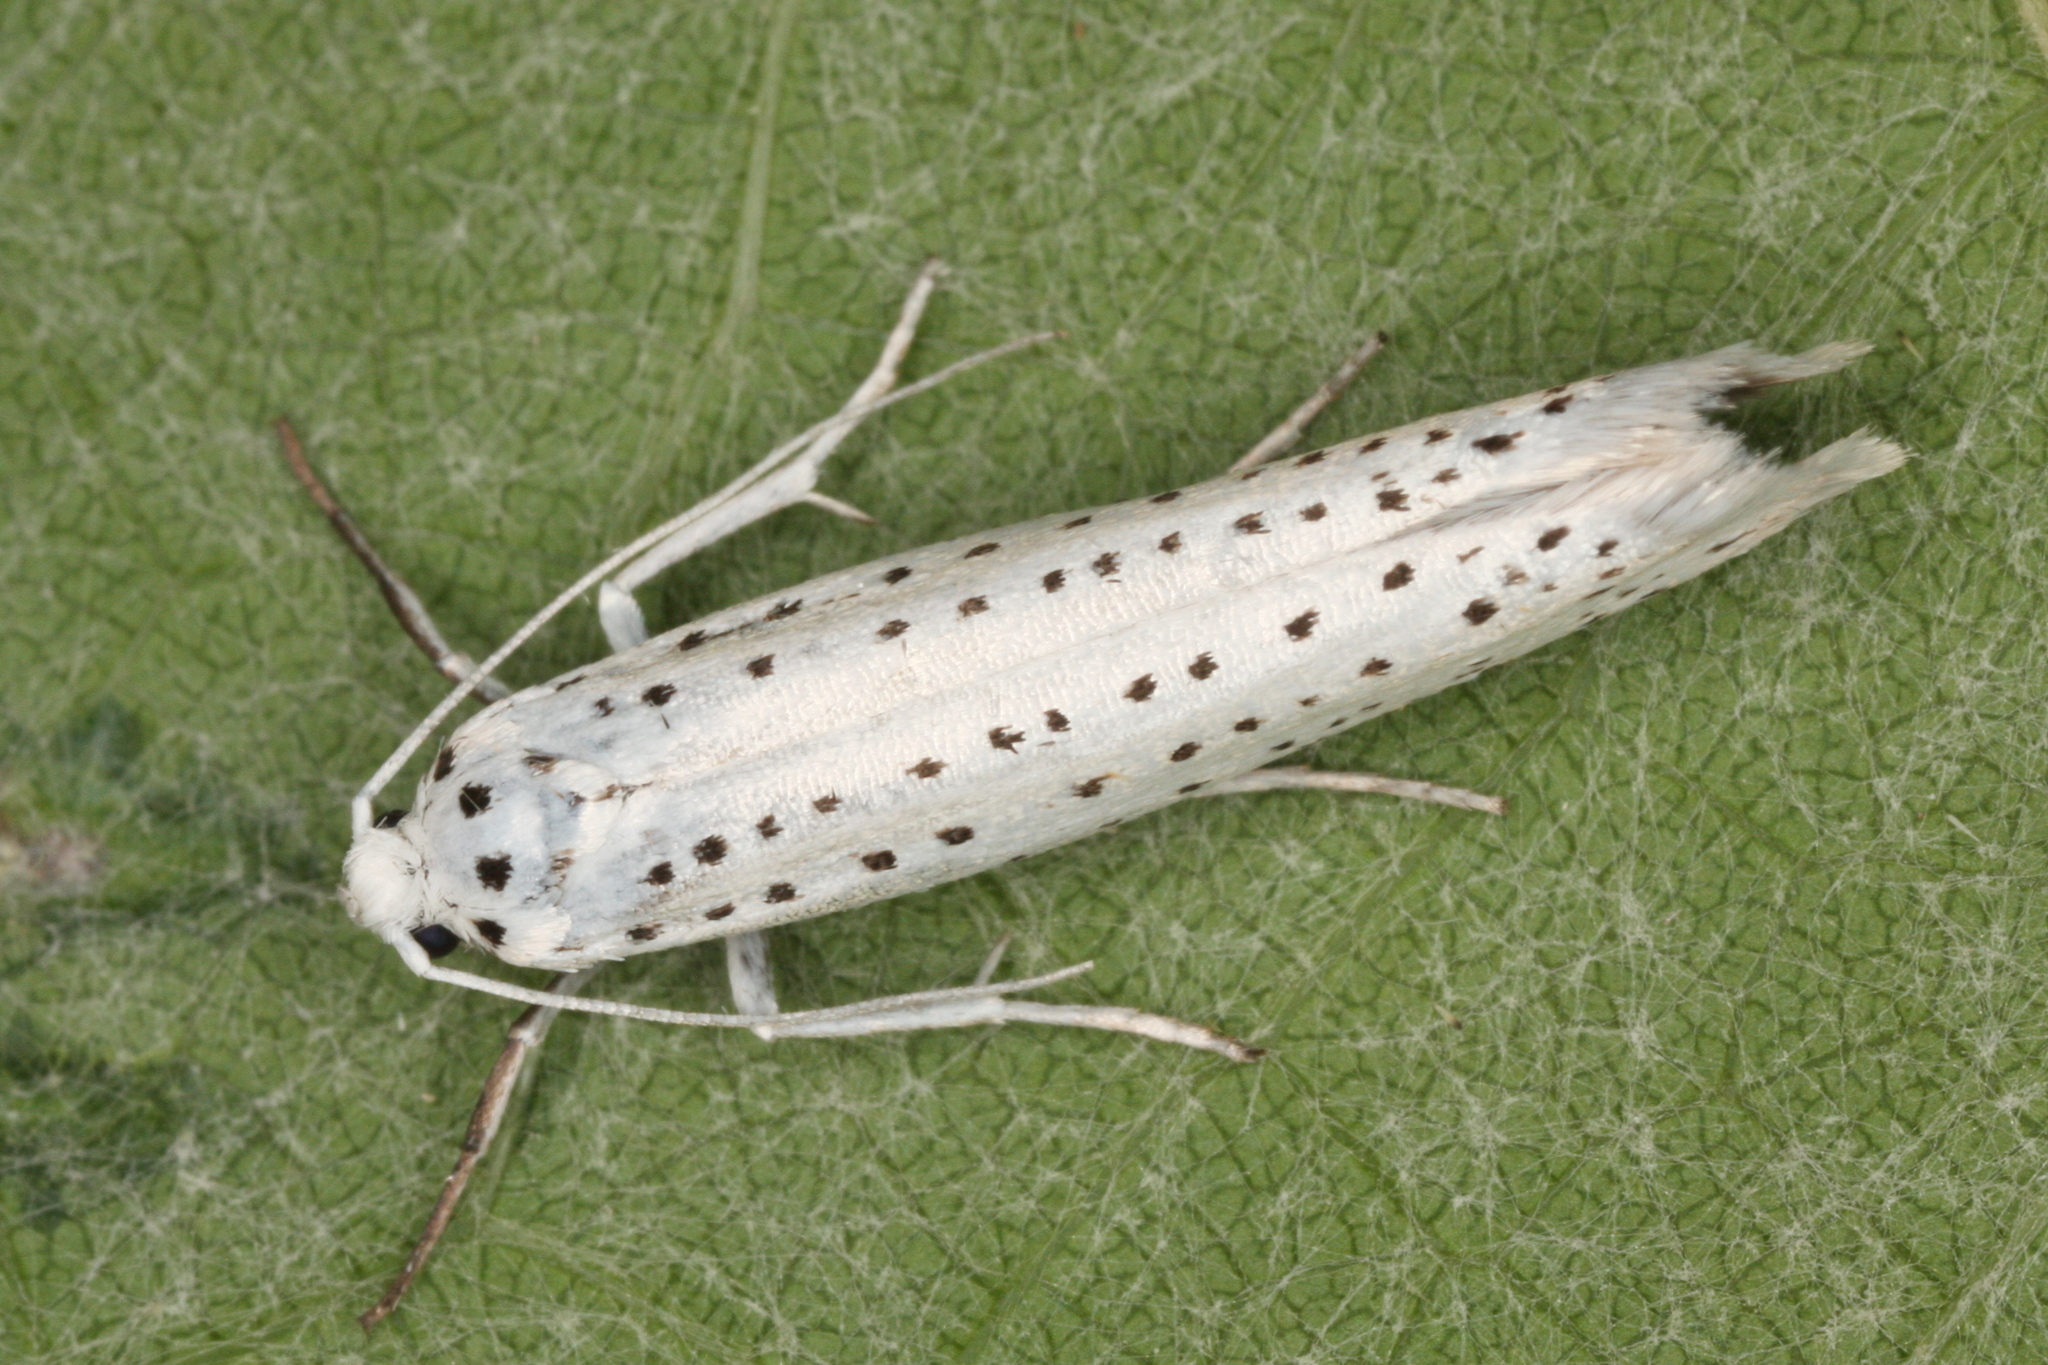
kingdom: Animalia
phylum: Arthropoda
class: Insecta
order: Lepidoptera
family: Yponomeutidae
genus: Yponomeuta
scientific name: Yponomeuta evonymella
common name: Bird-cherry ermine
